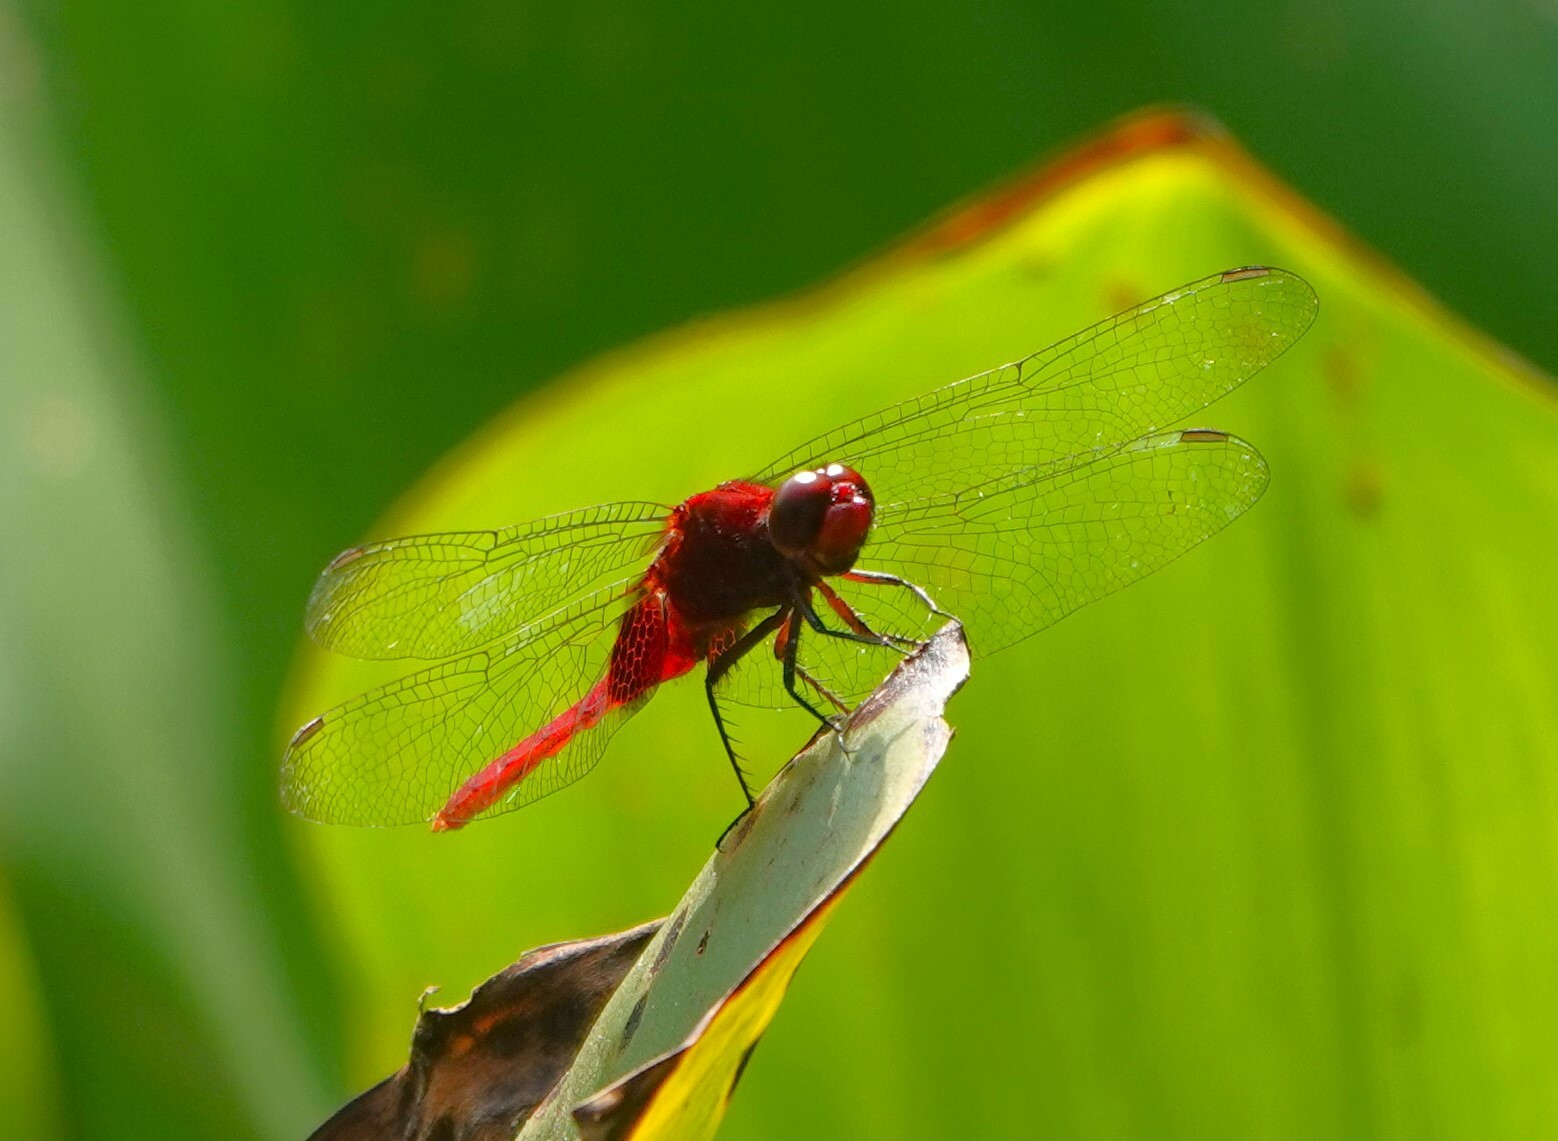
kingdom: Animalia
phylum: Arthropoda
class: Insecta
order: Odonata
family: Libellulidae
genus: Erythemis
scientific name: Erythemis mithroides
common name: Claret pondhawk
